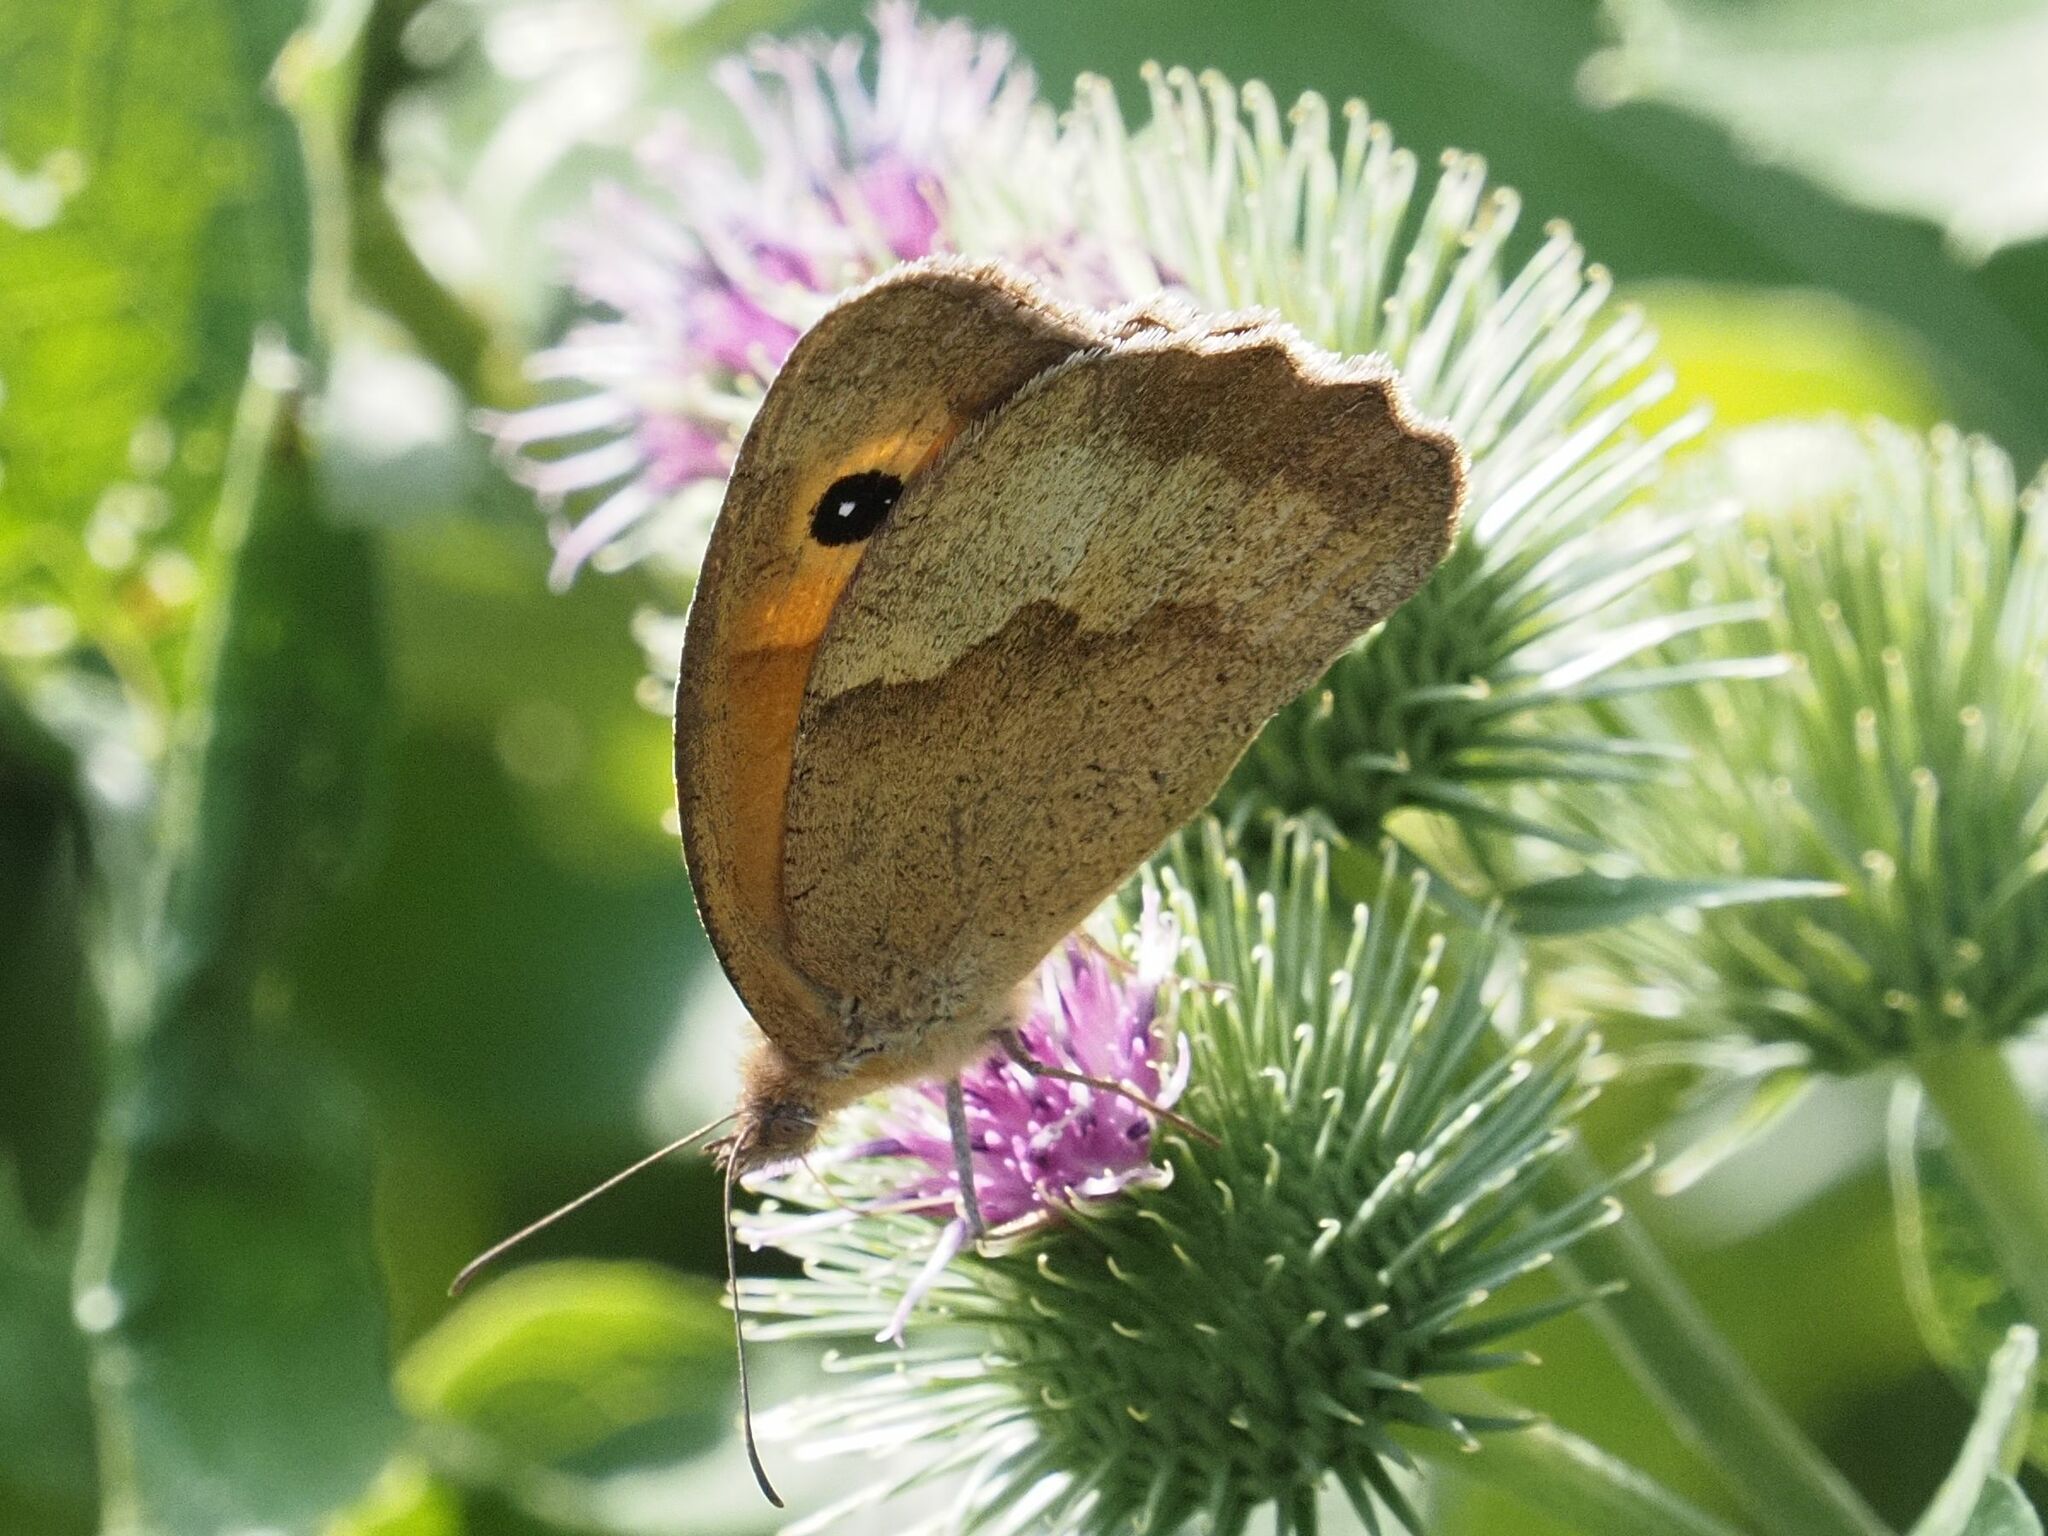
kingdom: Animalia
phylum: Arthropoda
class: Insecta
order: Lepidoptera
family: Nymphalidae
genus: Maniola
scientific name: Maniola jurtina
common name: Meadow brown
